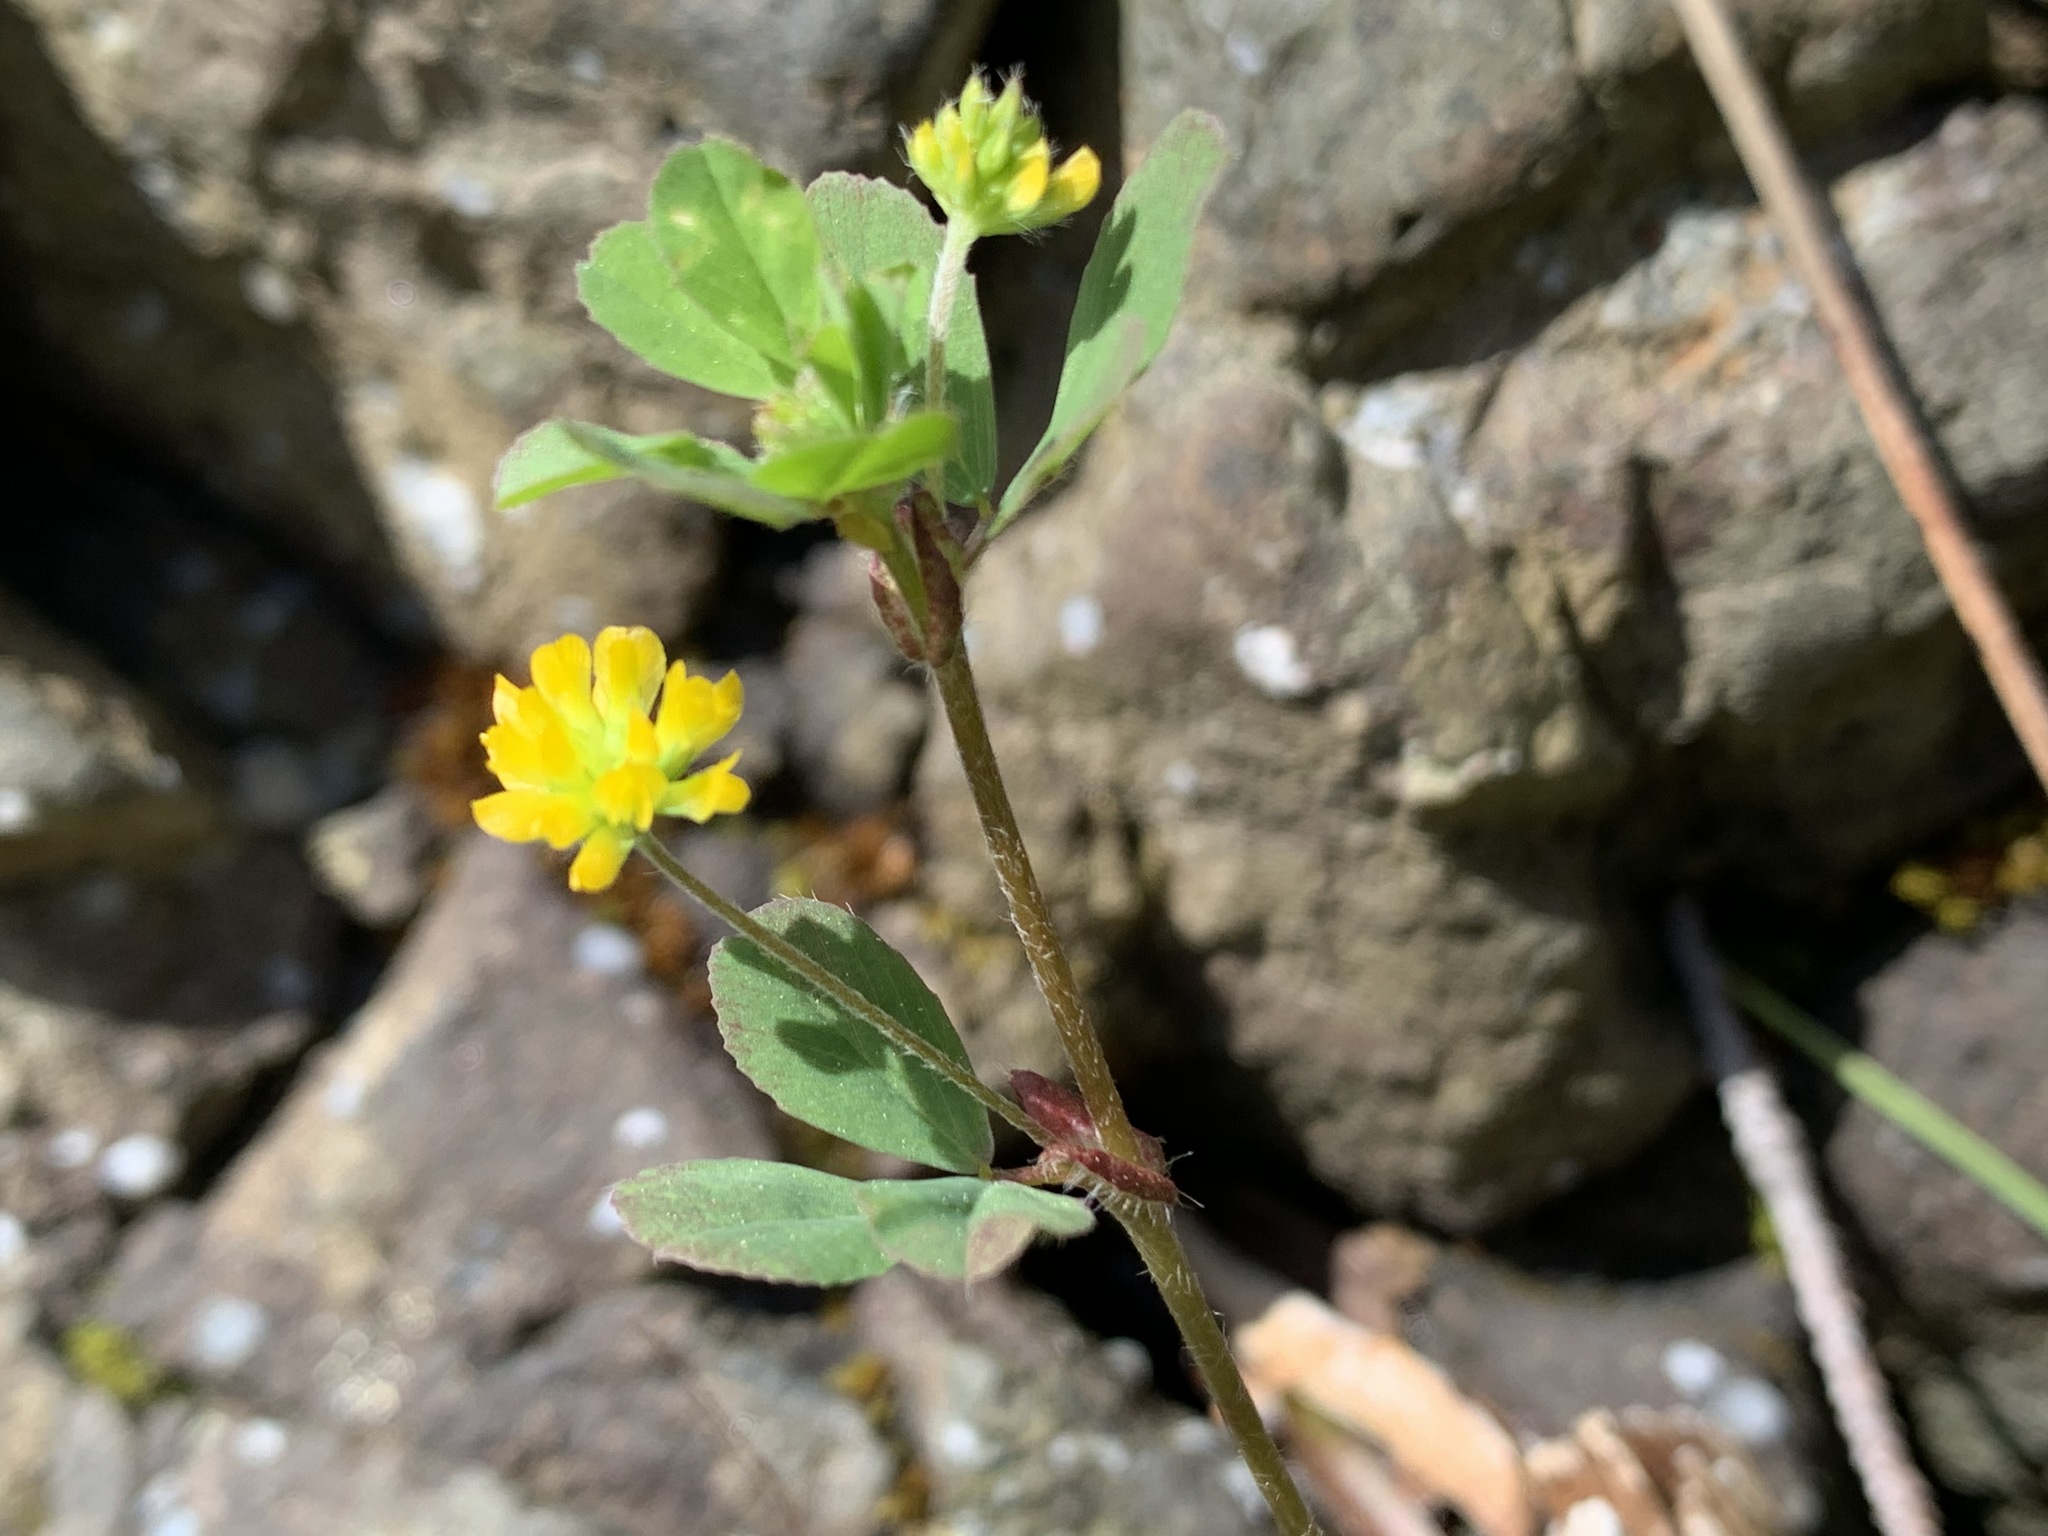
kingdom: Plantae
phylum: Tracheophyta
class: Magnoliopsida
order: Fabales
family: Fabaceae
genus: Trifolium
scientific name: Trifolium dubium
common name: Suckling clover
